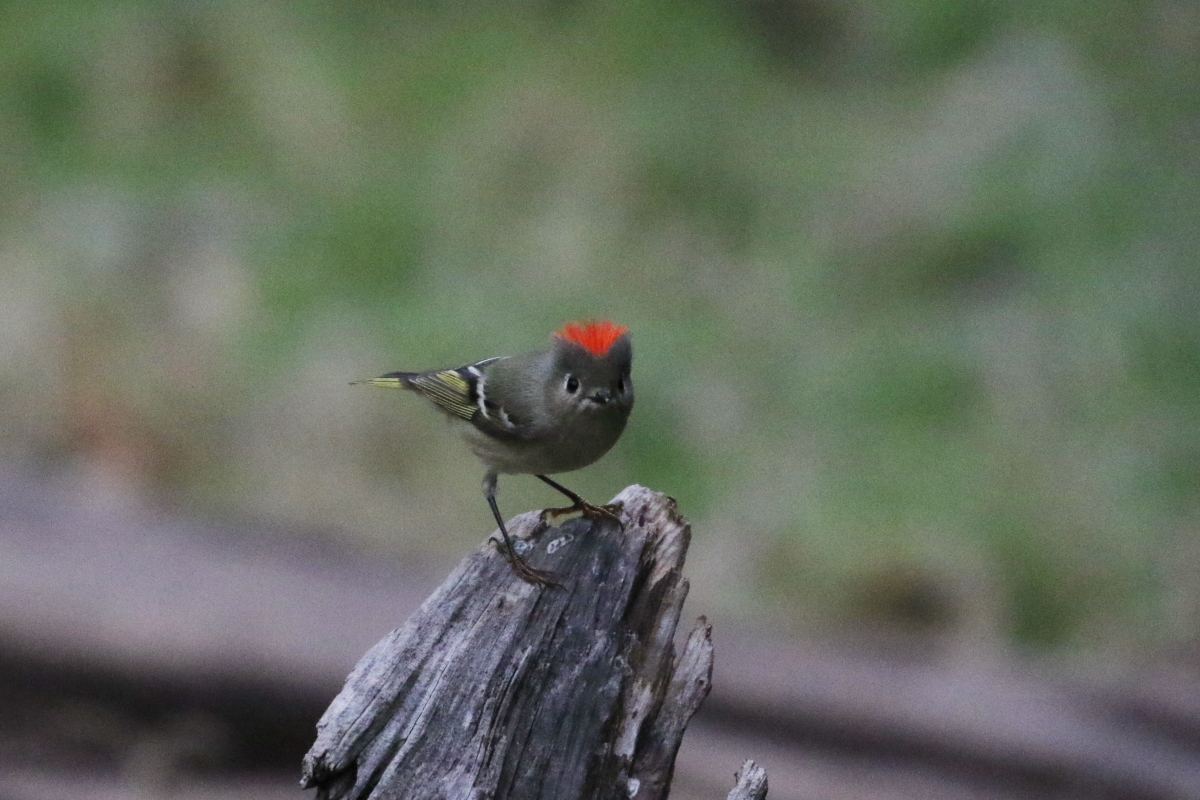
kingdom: Animalia
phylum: Chordata
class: Aves
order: Passeriformes
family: Regulidae
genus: Regulus
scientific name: Regulus calendula
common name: Ruby-crowned kinglet
